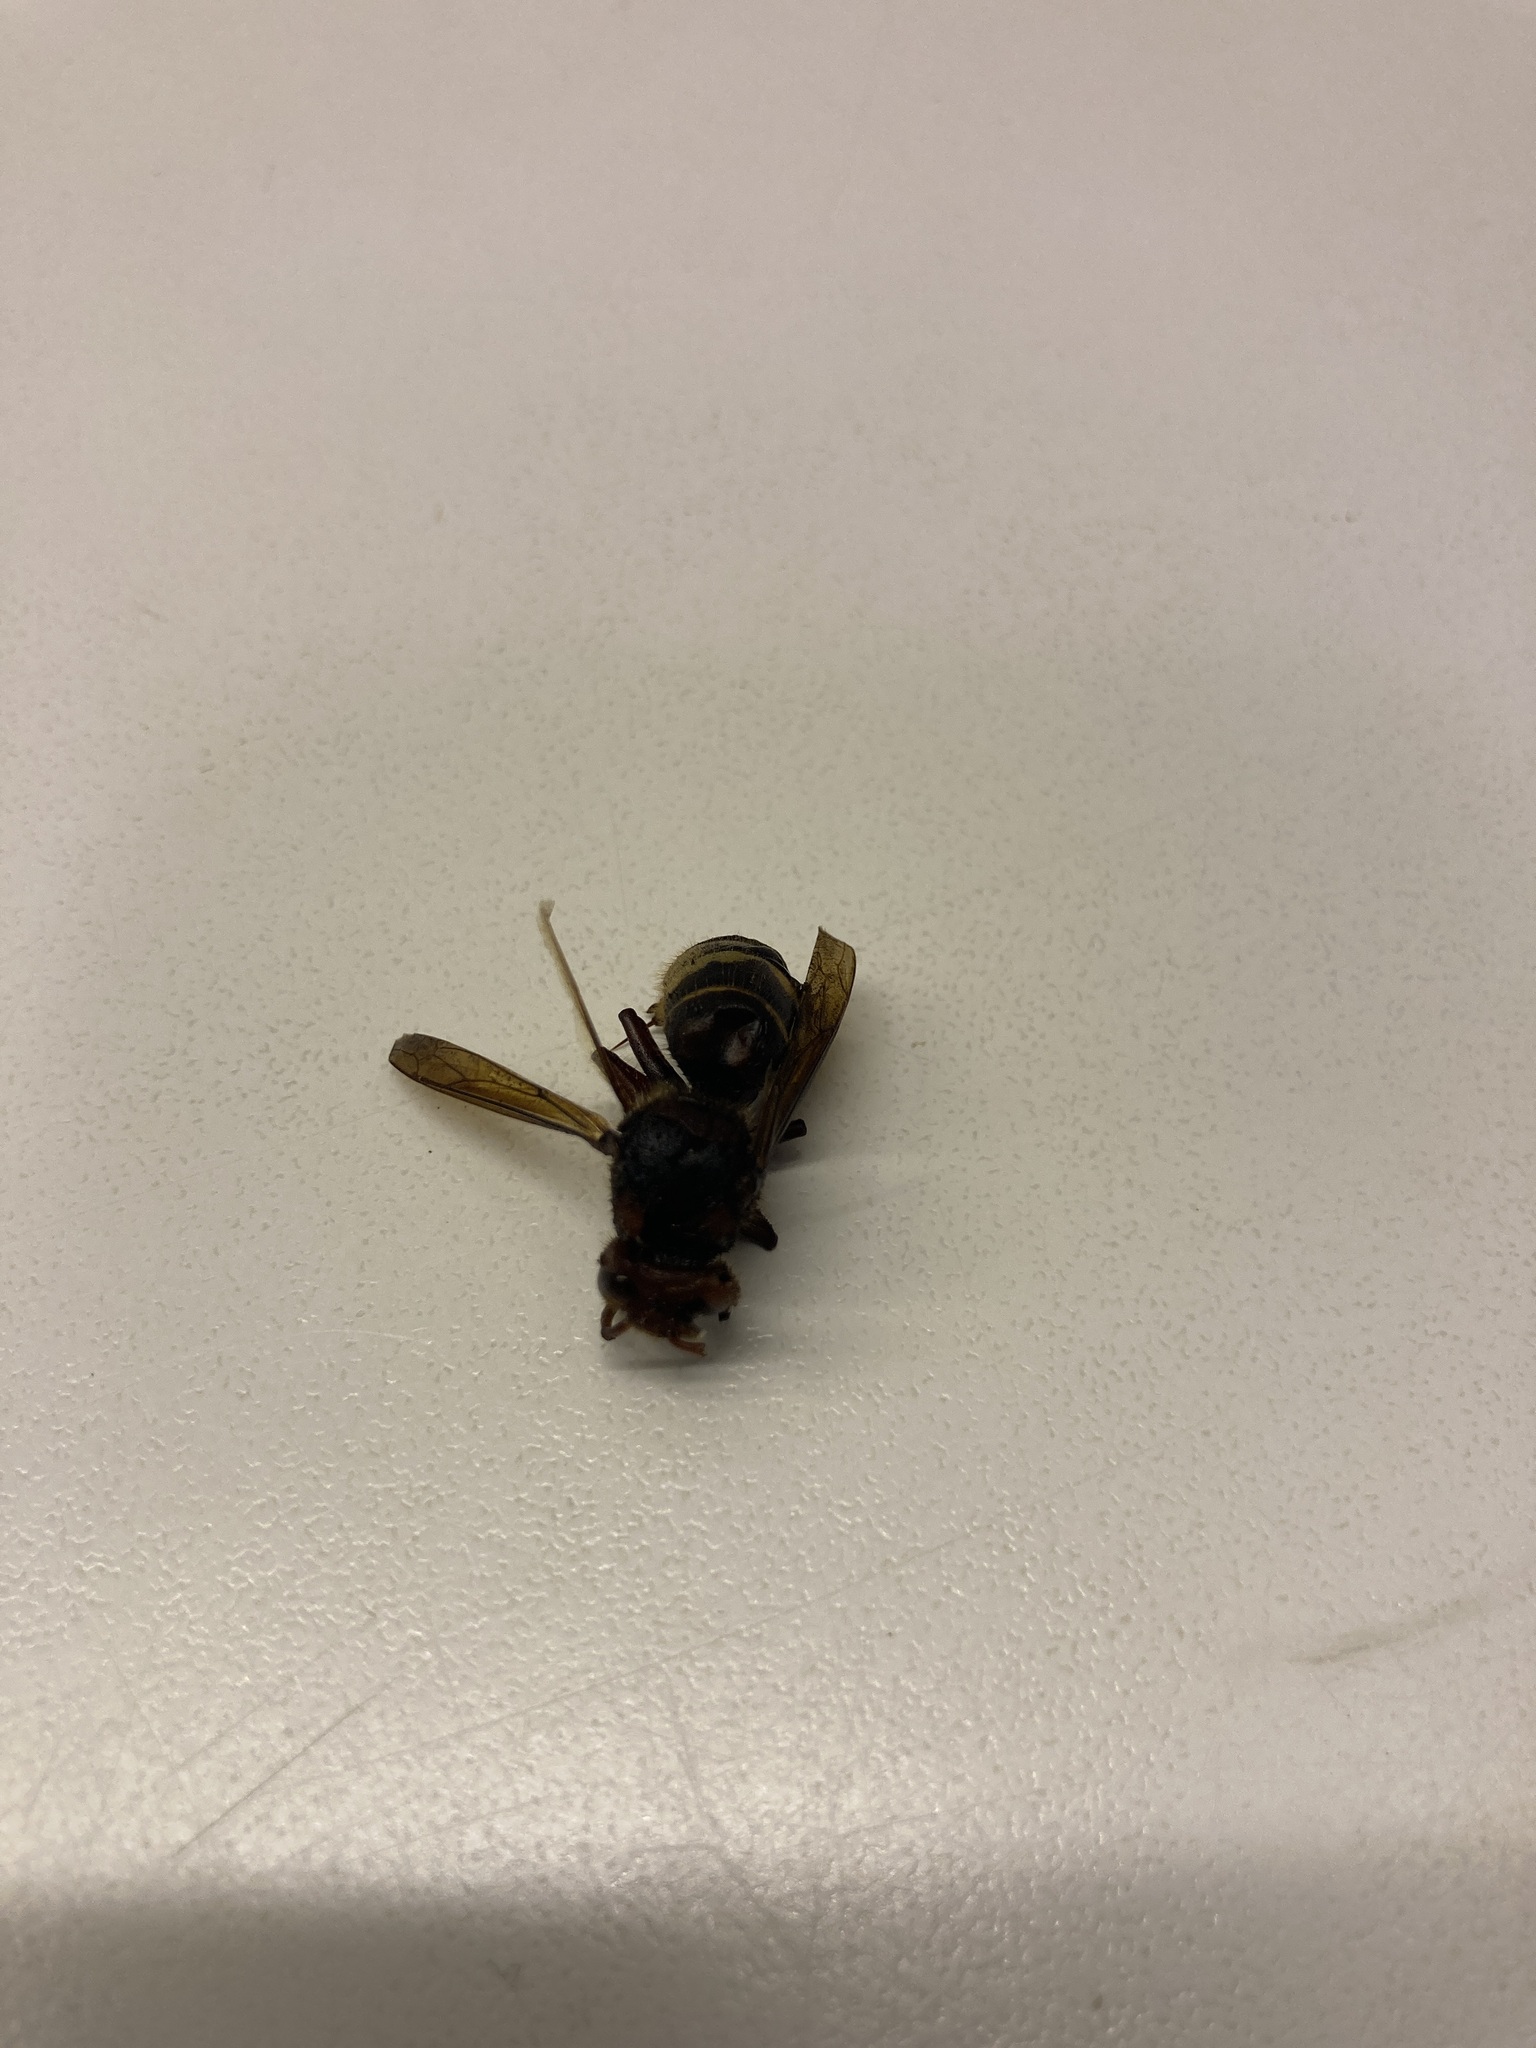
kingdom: Animalia
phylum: Arthropoda
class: Insecta
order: Hymenoptera
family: Vespidae
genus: Vespa
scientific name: Vespa crabro
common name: Hornet
